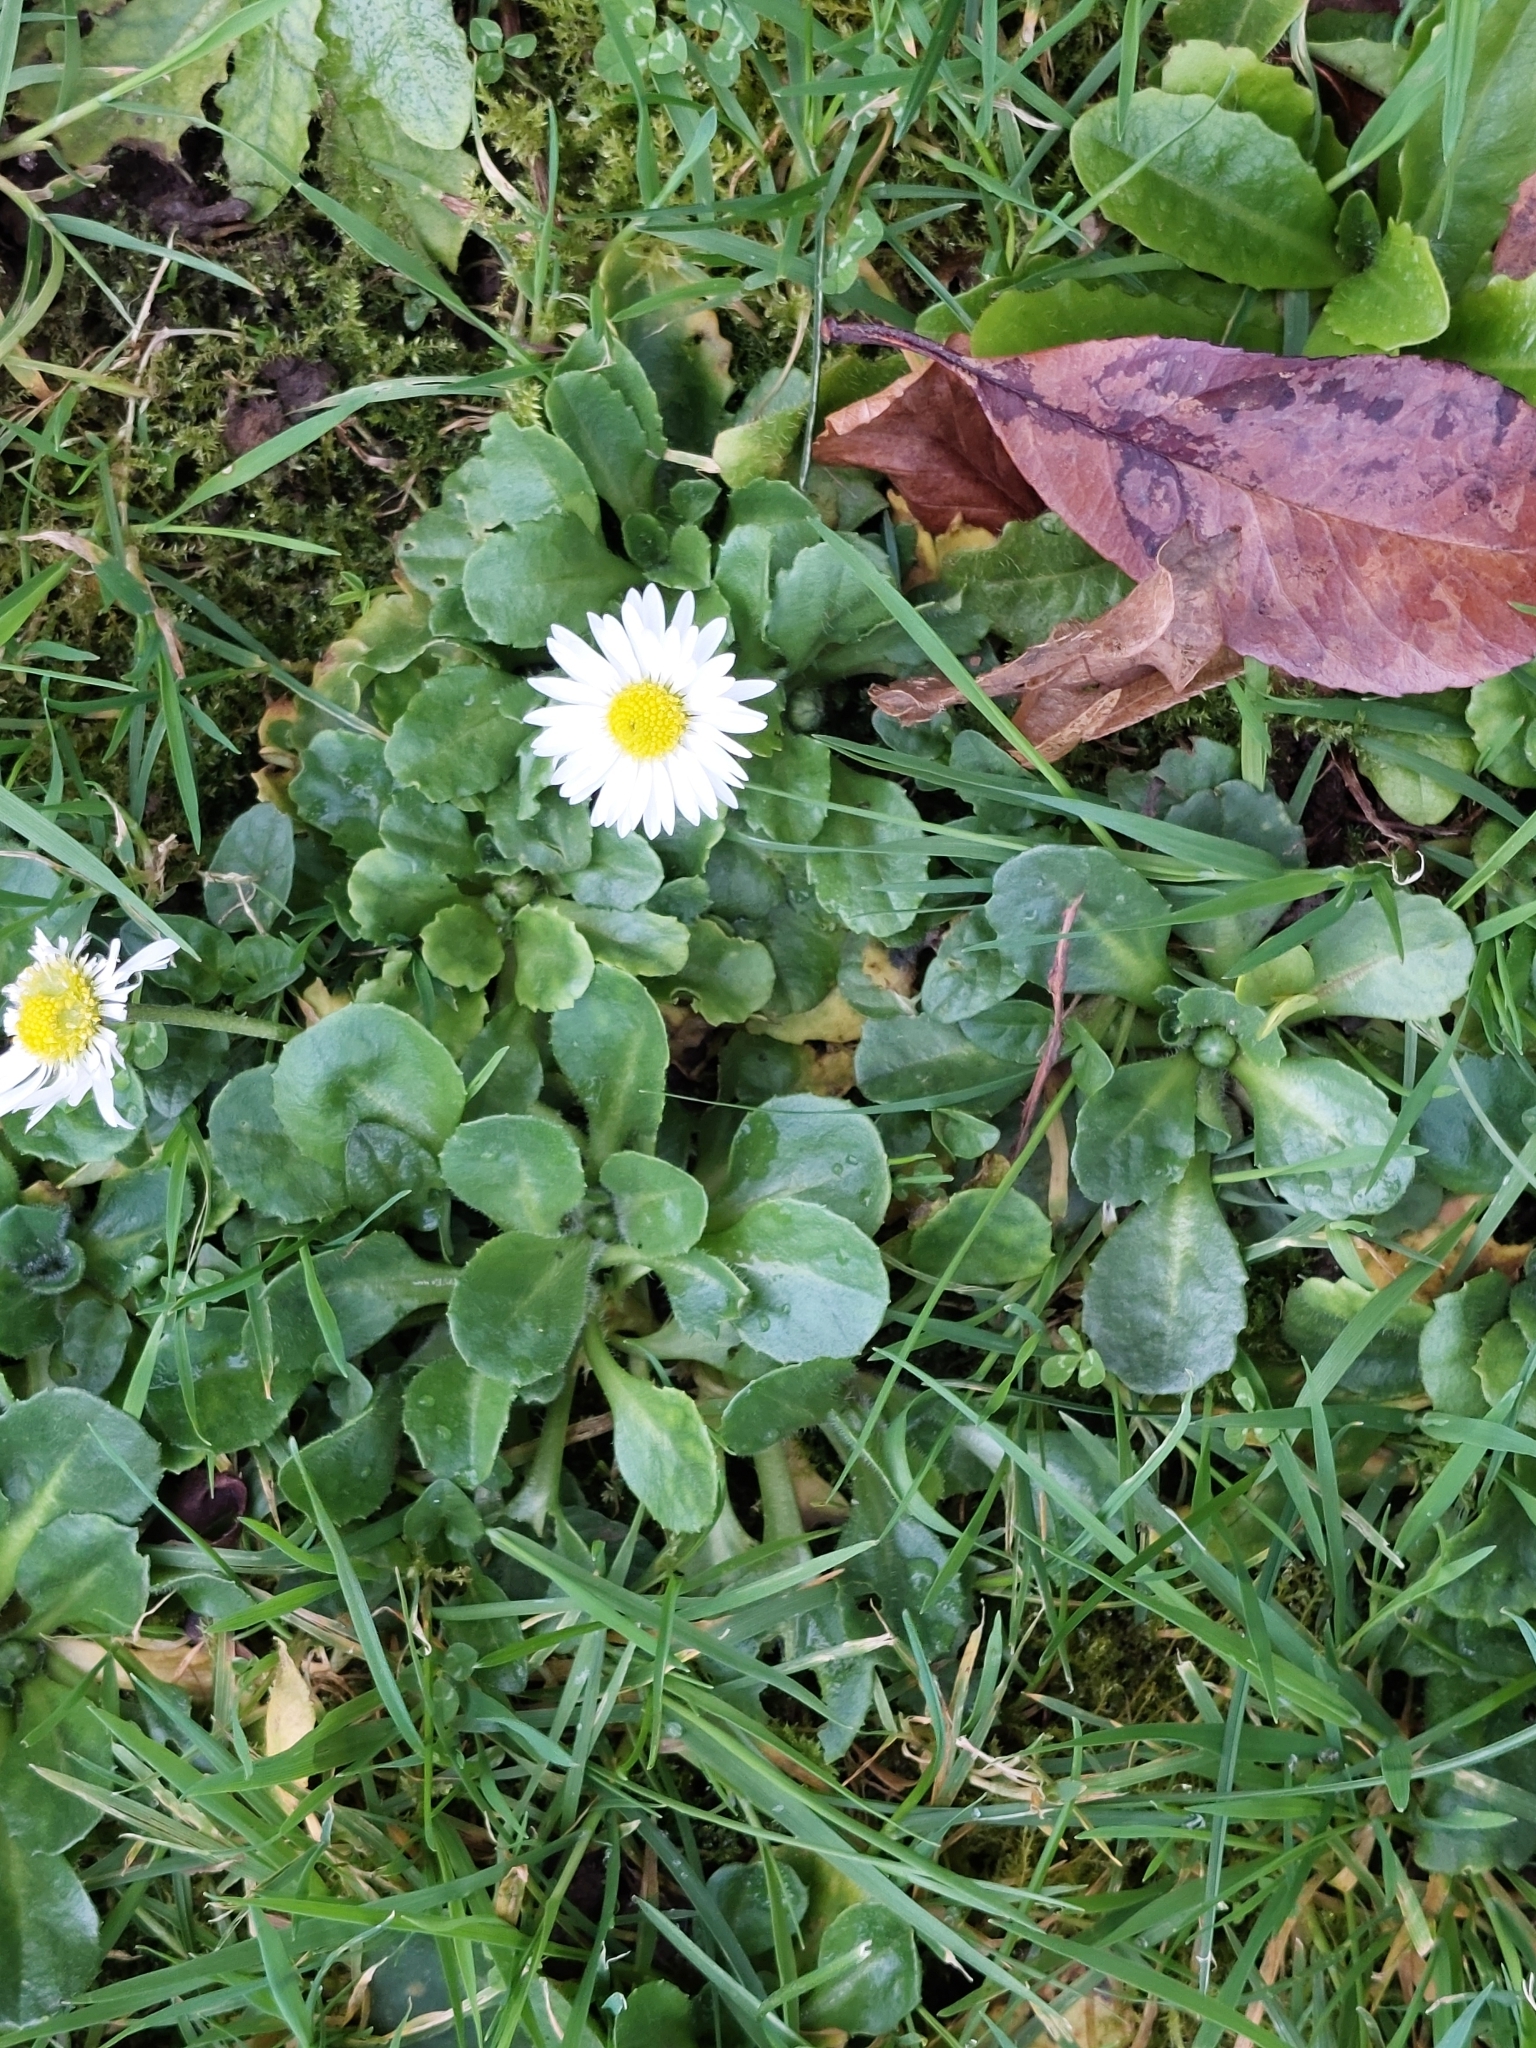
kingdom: Plantae
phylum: Tracheophyta
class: Magnoliopsida
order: Asterales
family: Asteraceae
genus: Bellis
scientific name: Bellis perennis
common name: Lawndaisy
